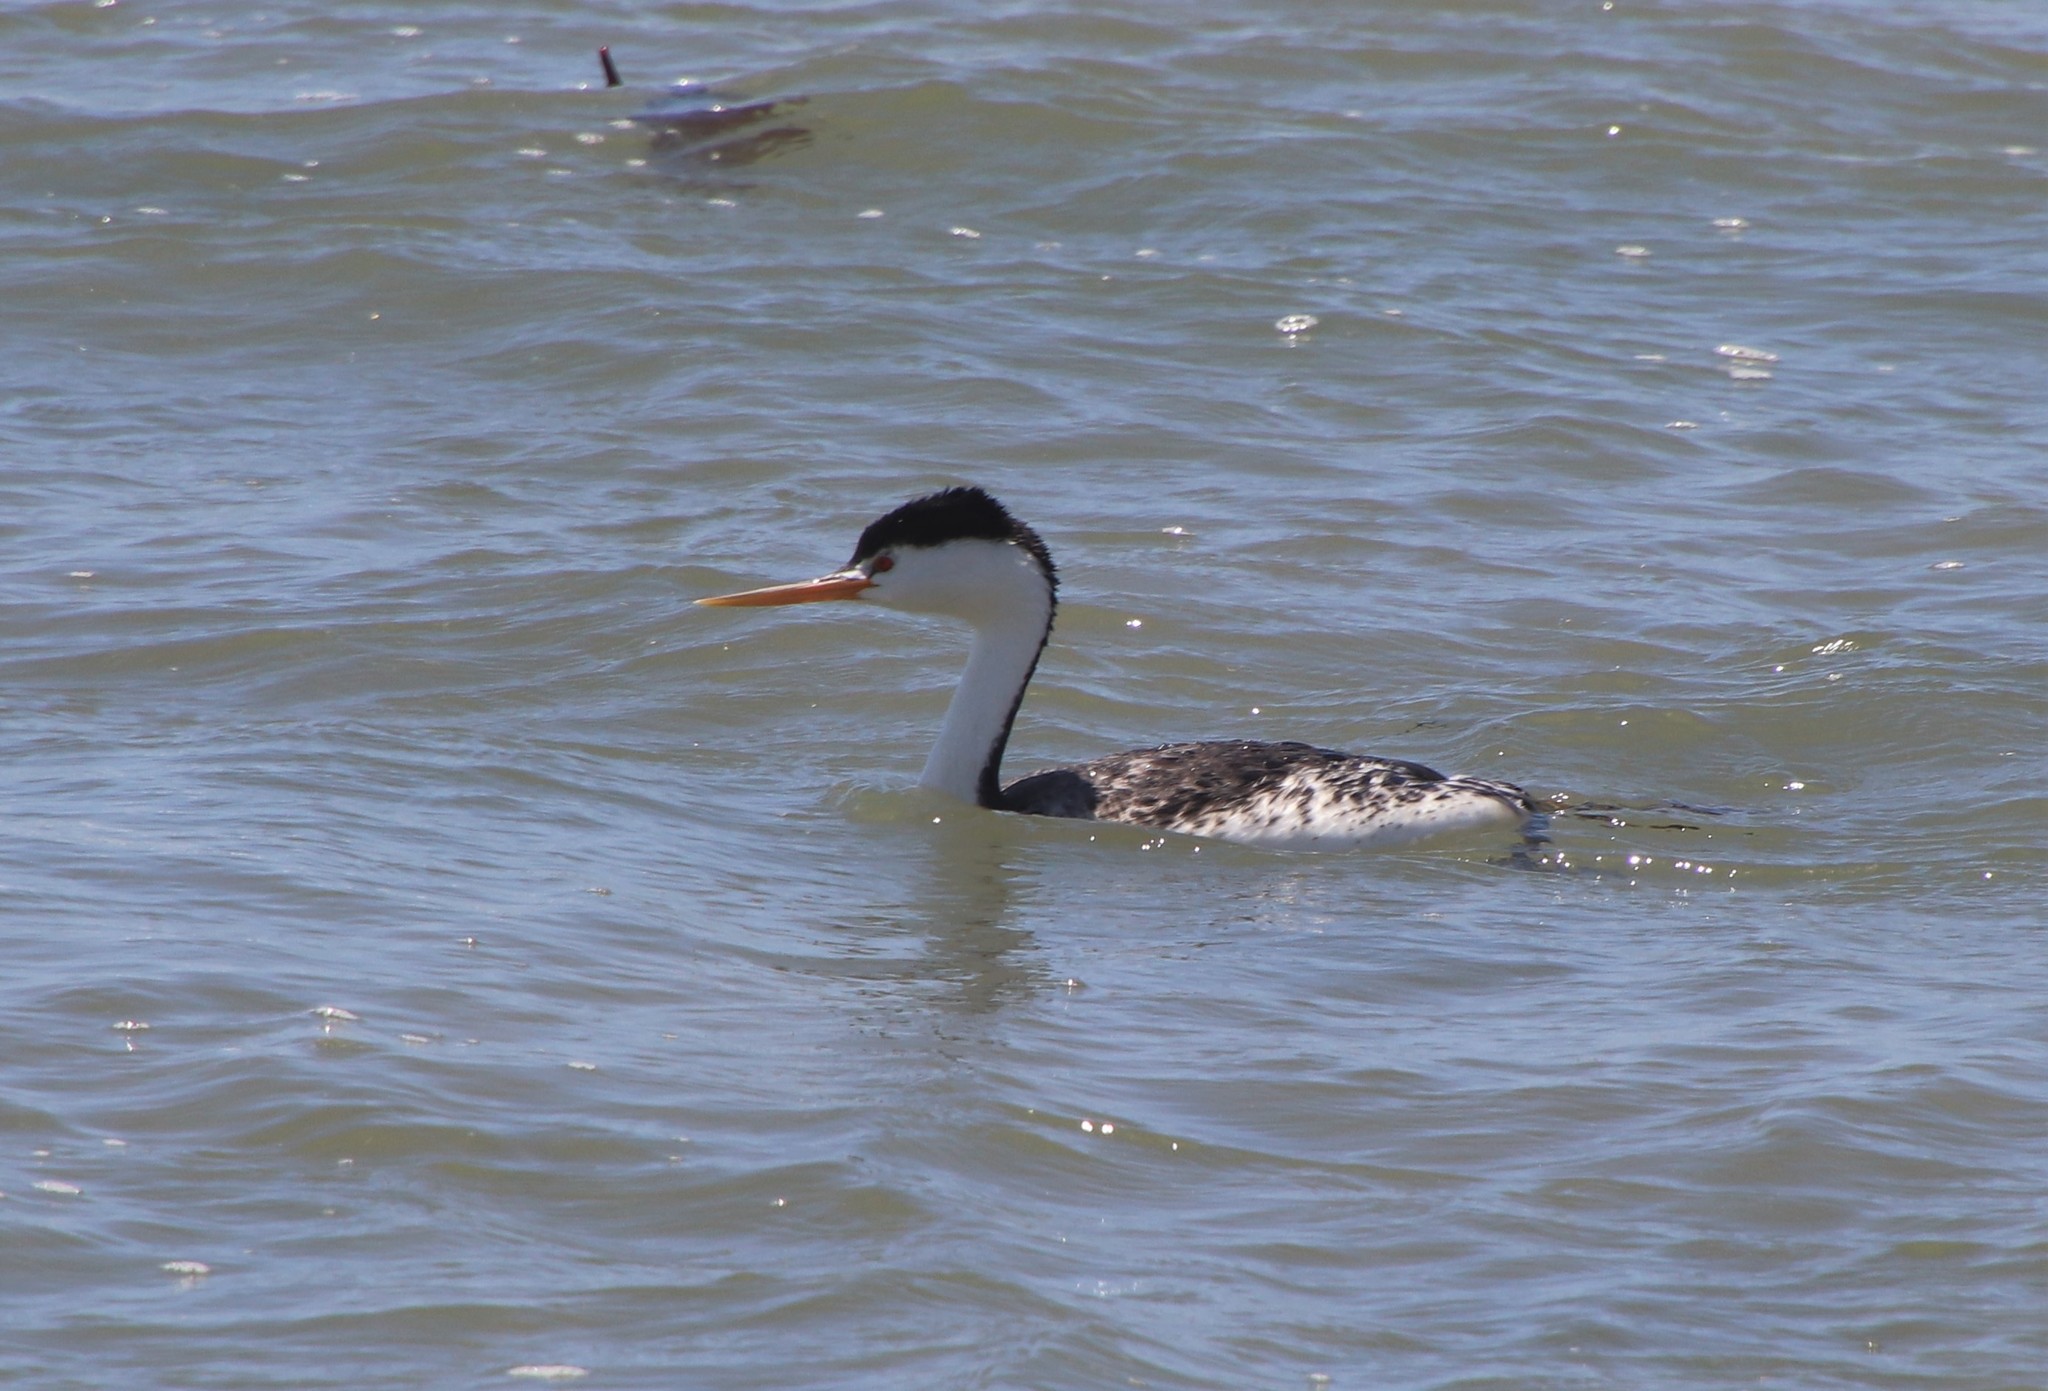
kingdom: Animalia
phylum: Chordata
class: Aves
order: Podicipediformes
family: Podicipedidae
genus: Aechmophorus
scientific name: Aechmophorus clarkii
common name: Clark's grebe
